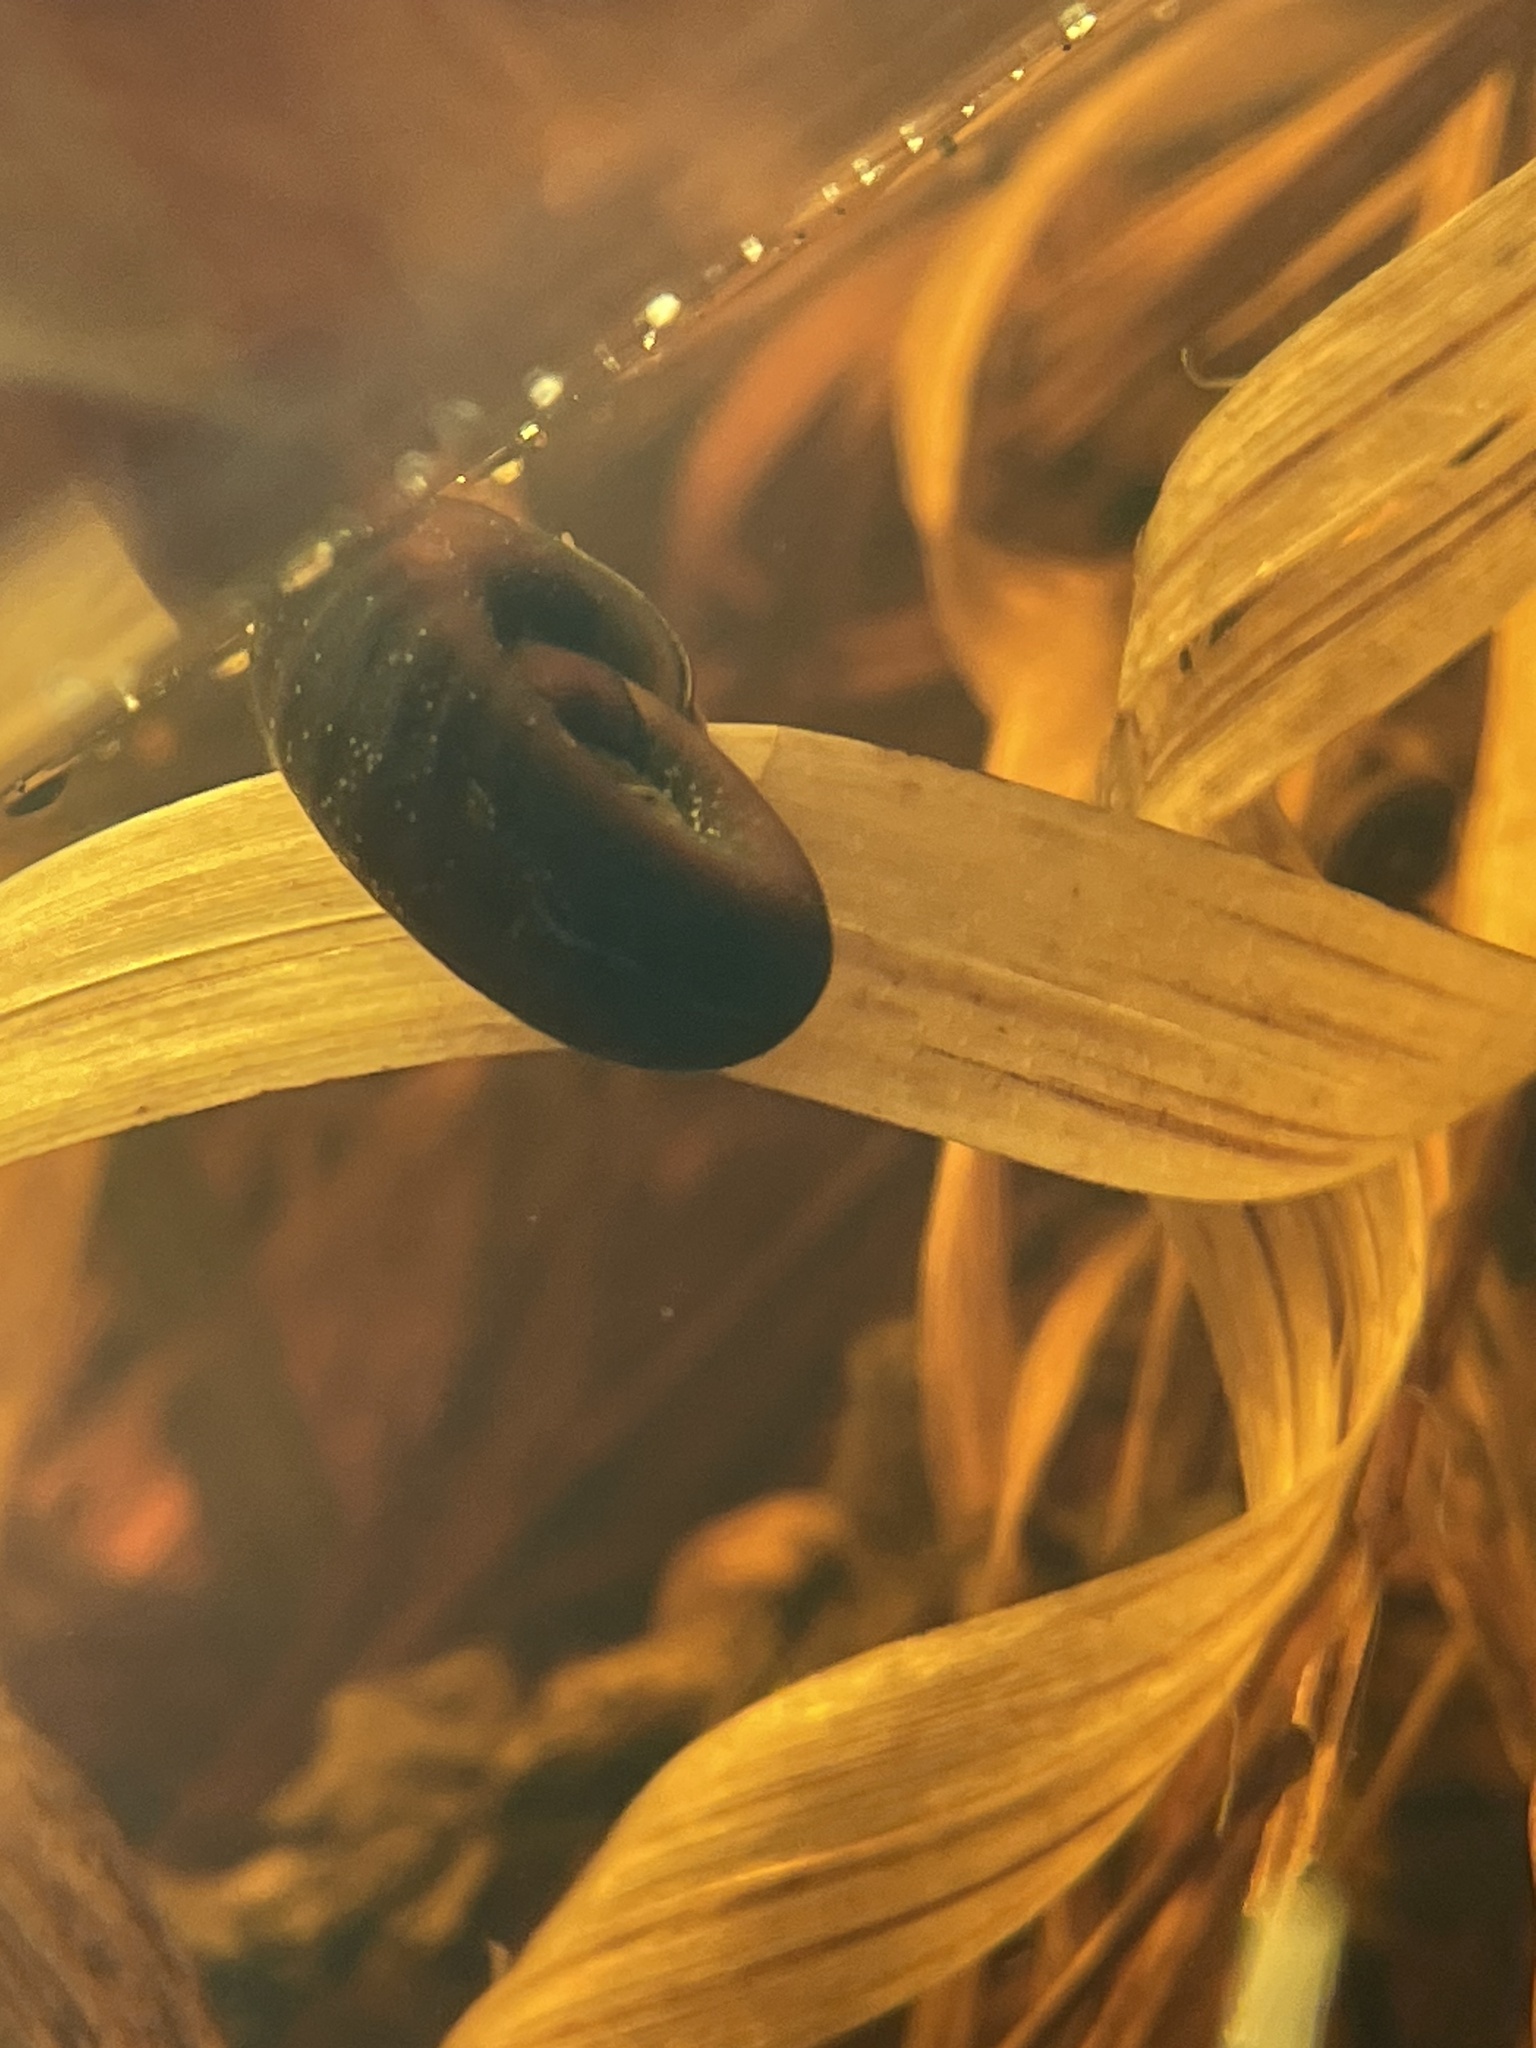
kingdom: Animalia
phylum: Mollusca
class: Gastropoda
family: Planorbidae
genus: Planorbarius
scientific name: Planorbarius corneus
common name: Great ramshorn
